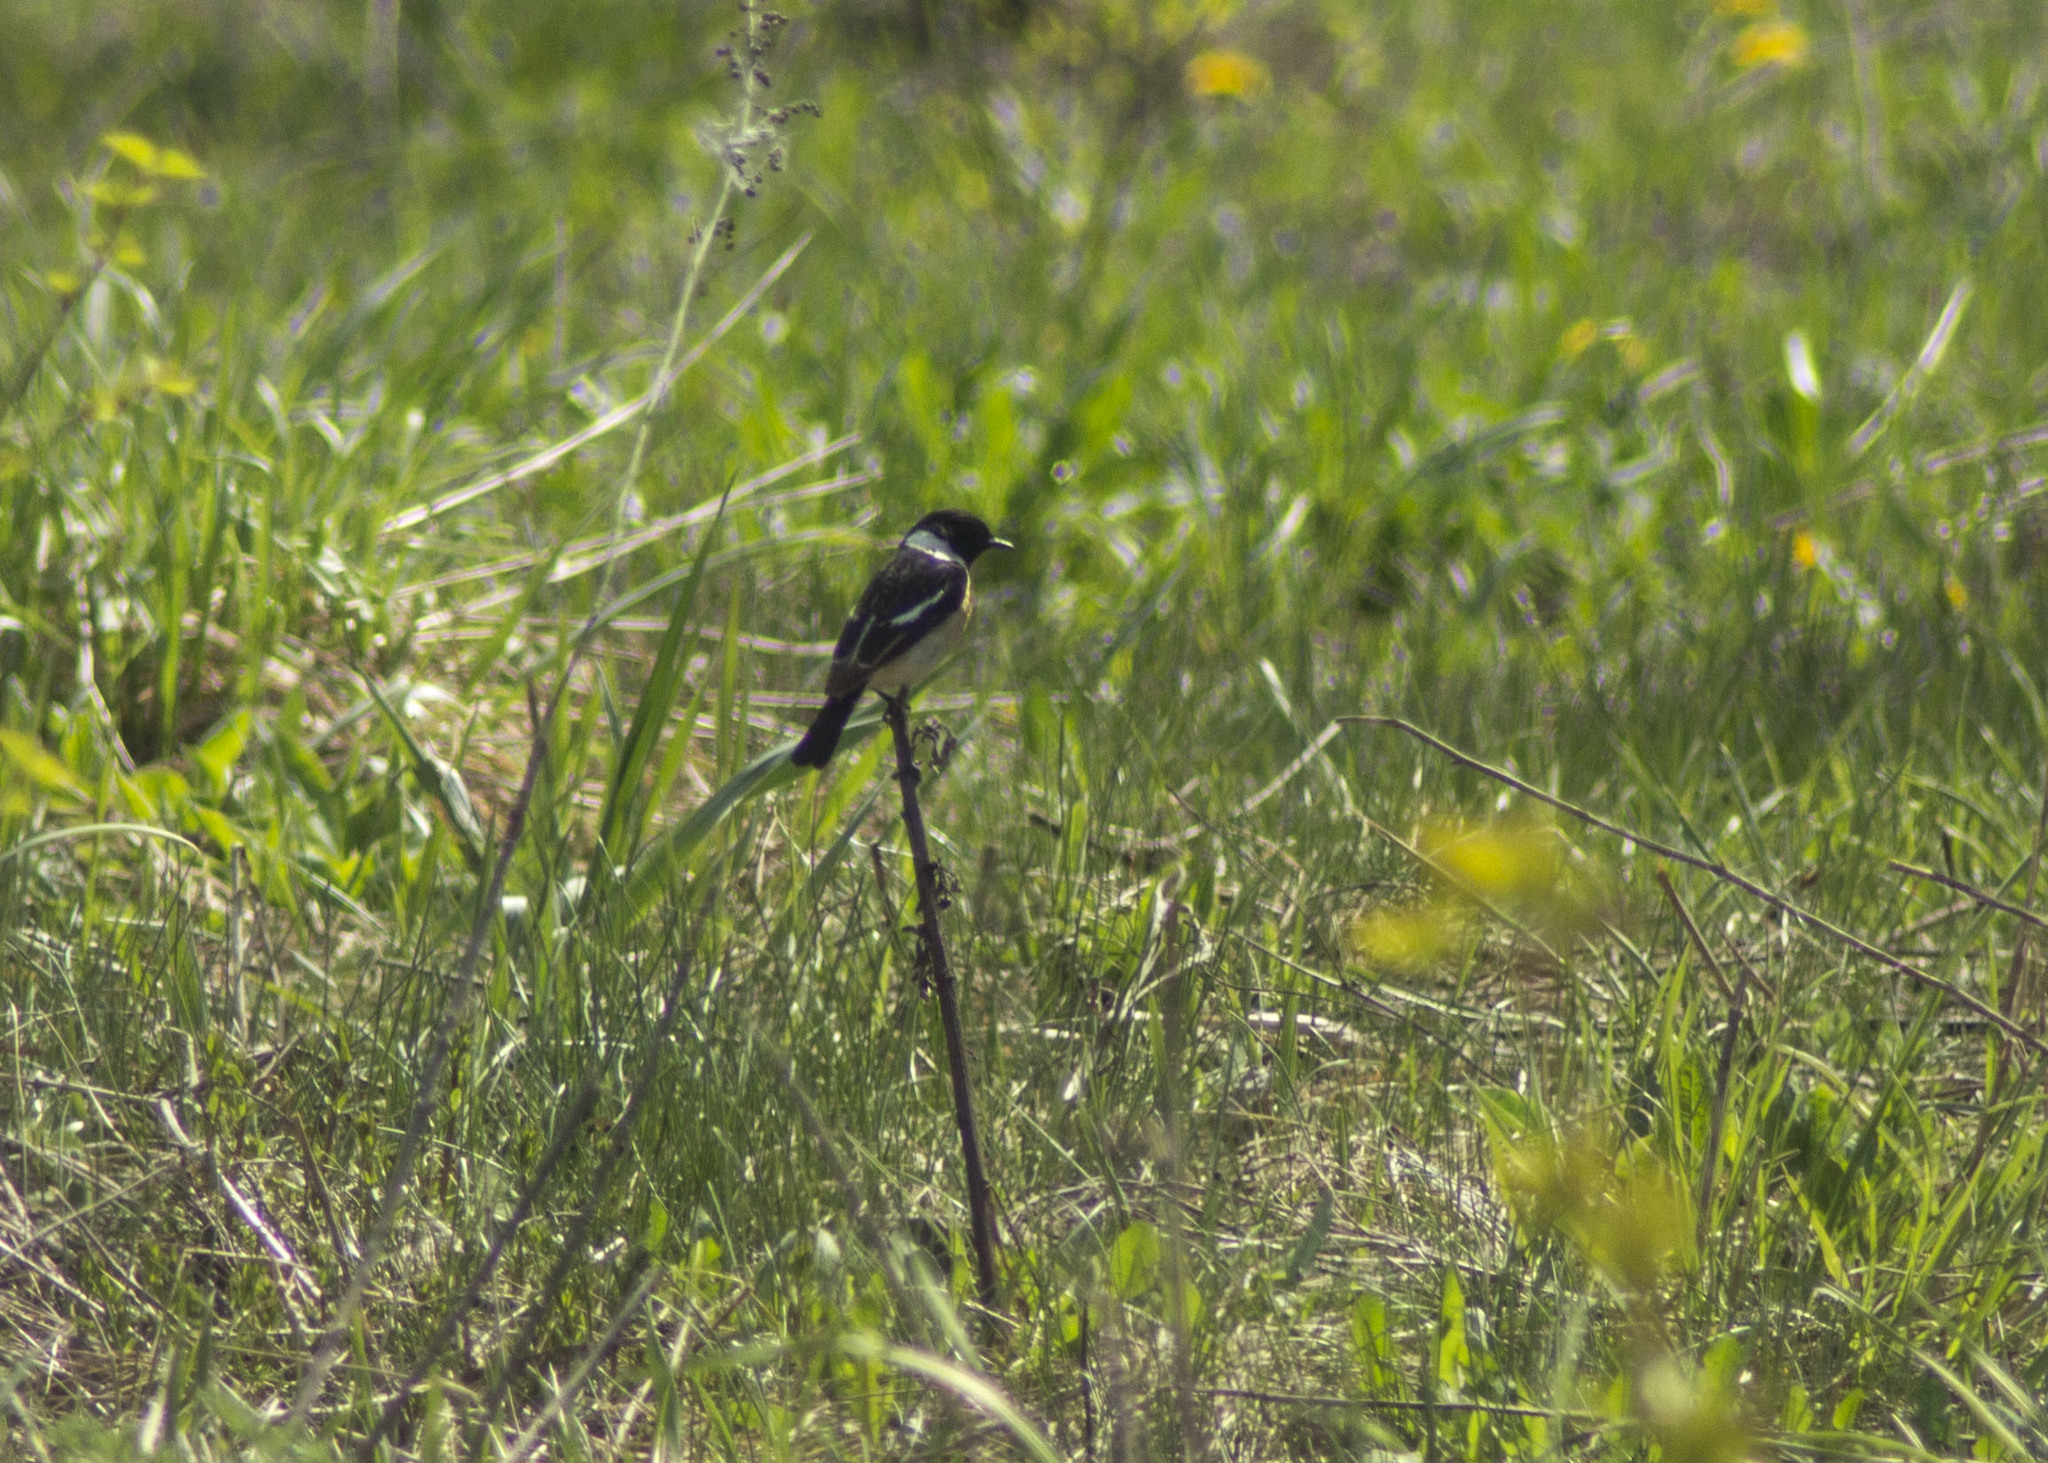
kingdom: Animalia
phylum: Chordata
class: Aves
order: Passeriformes
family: Muscicapidae
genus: Saxicola
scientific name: Saxicola maurus
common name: Siberian stonechat
